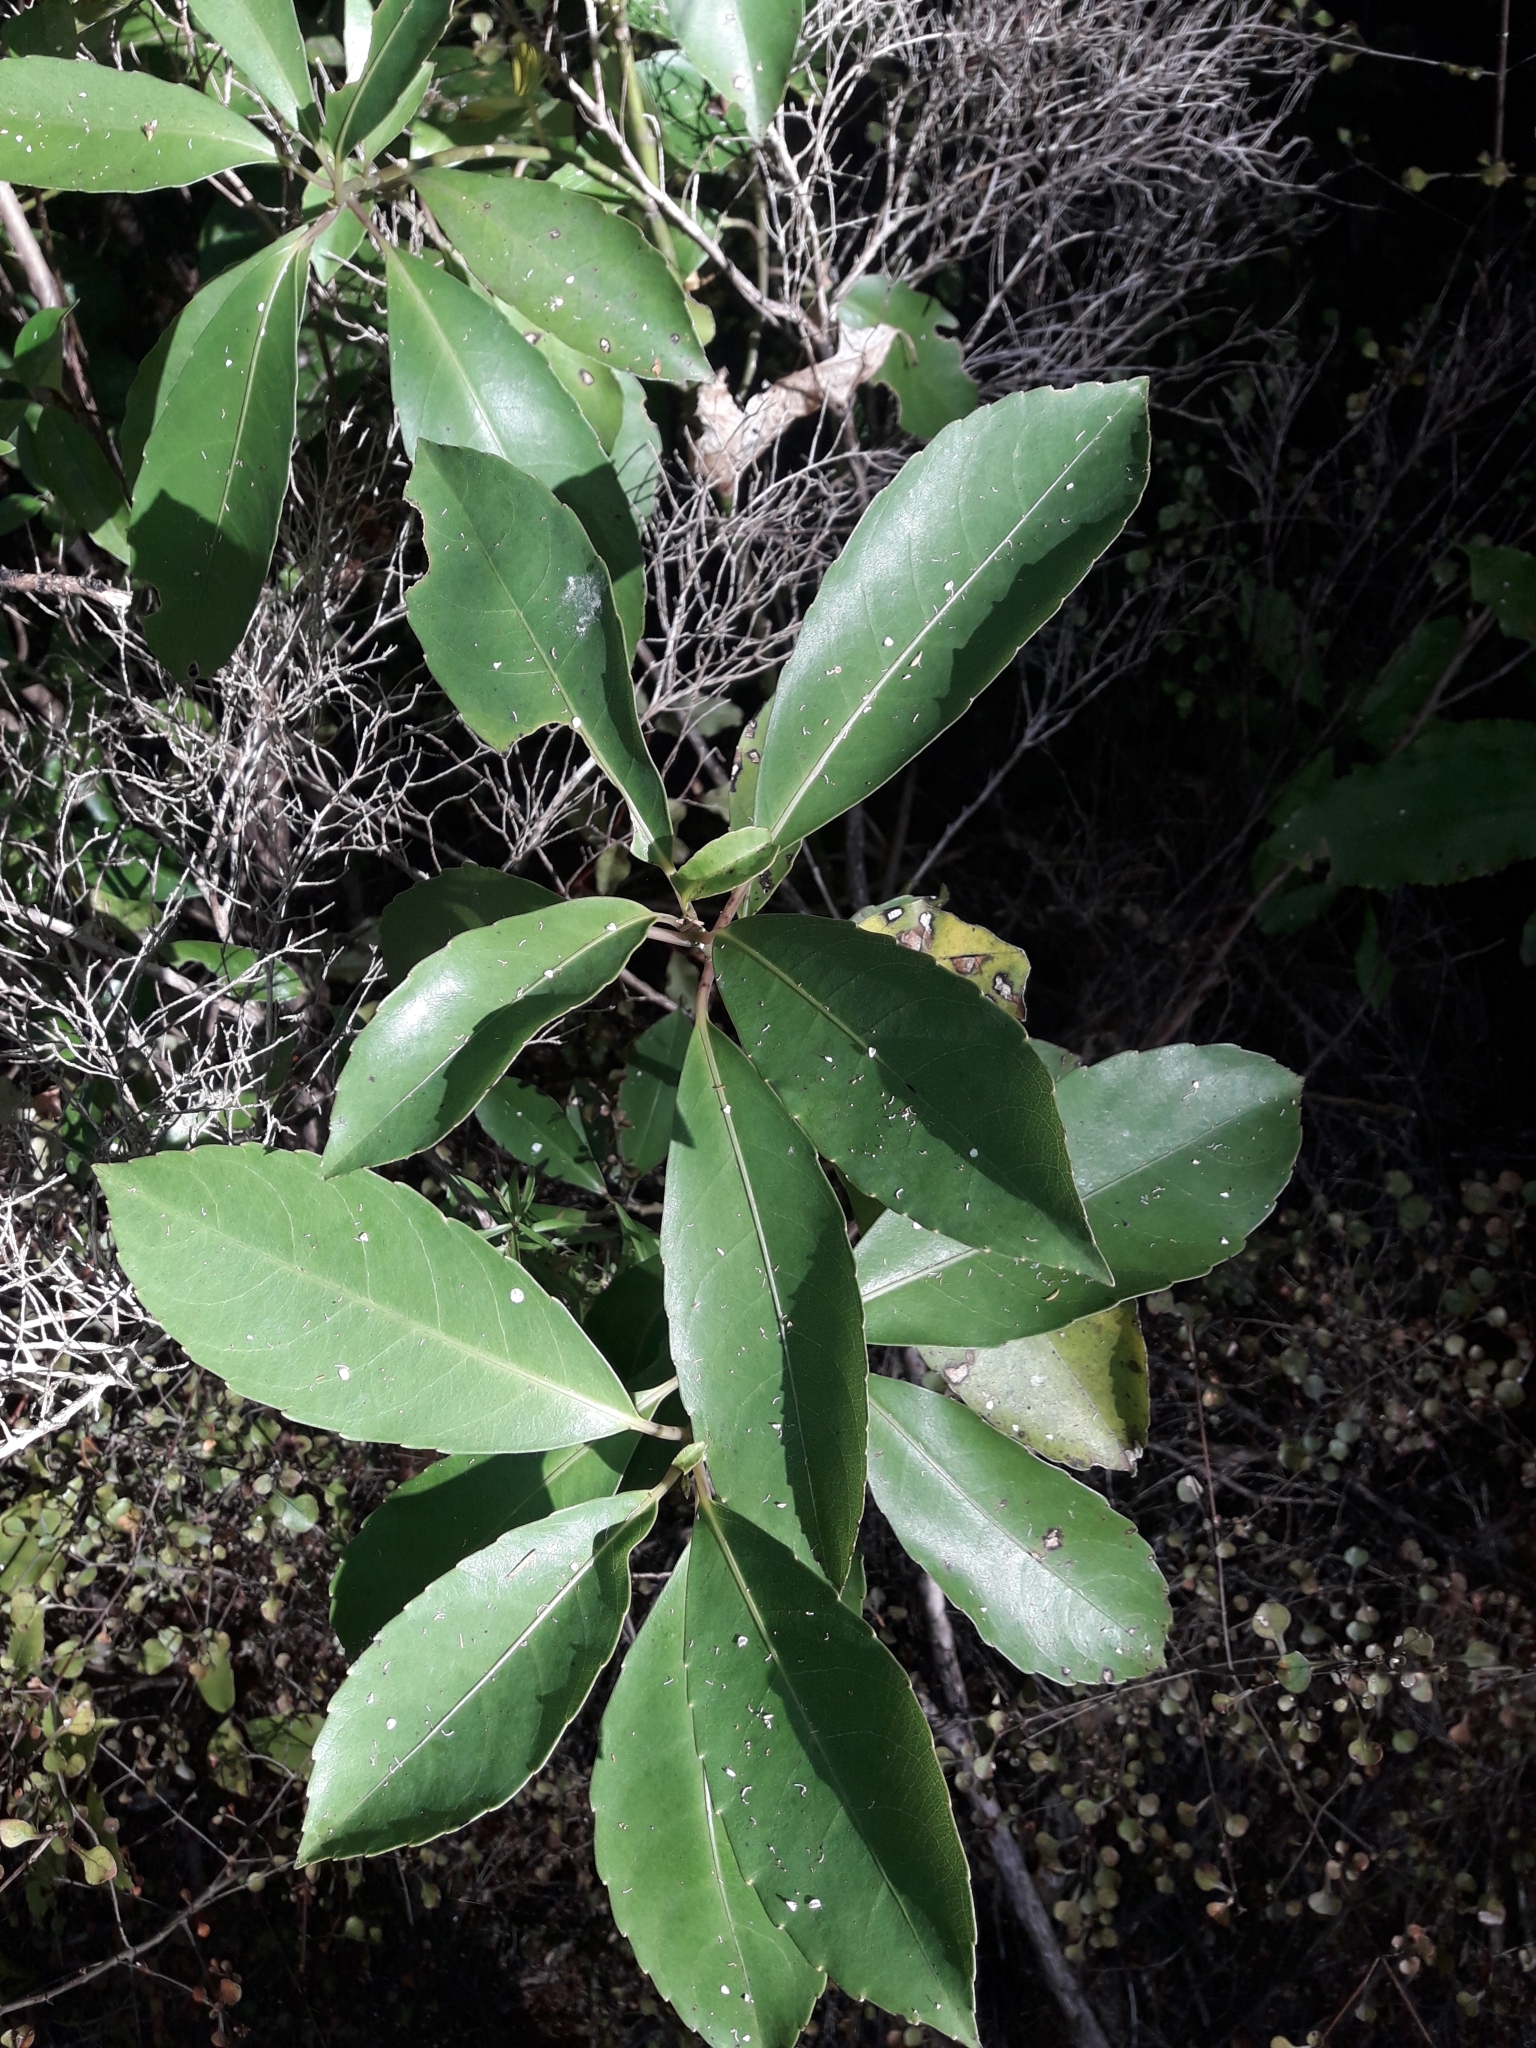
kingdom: Plantae
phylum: Tracheophyta
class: Magnoliopsida
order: Malpighiales
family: Violaceae
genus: Melicytus
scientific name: Melicytus macrophyllus
